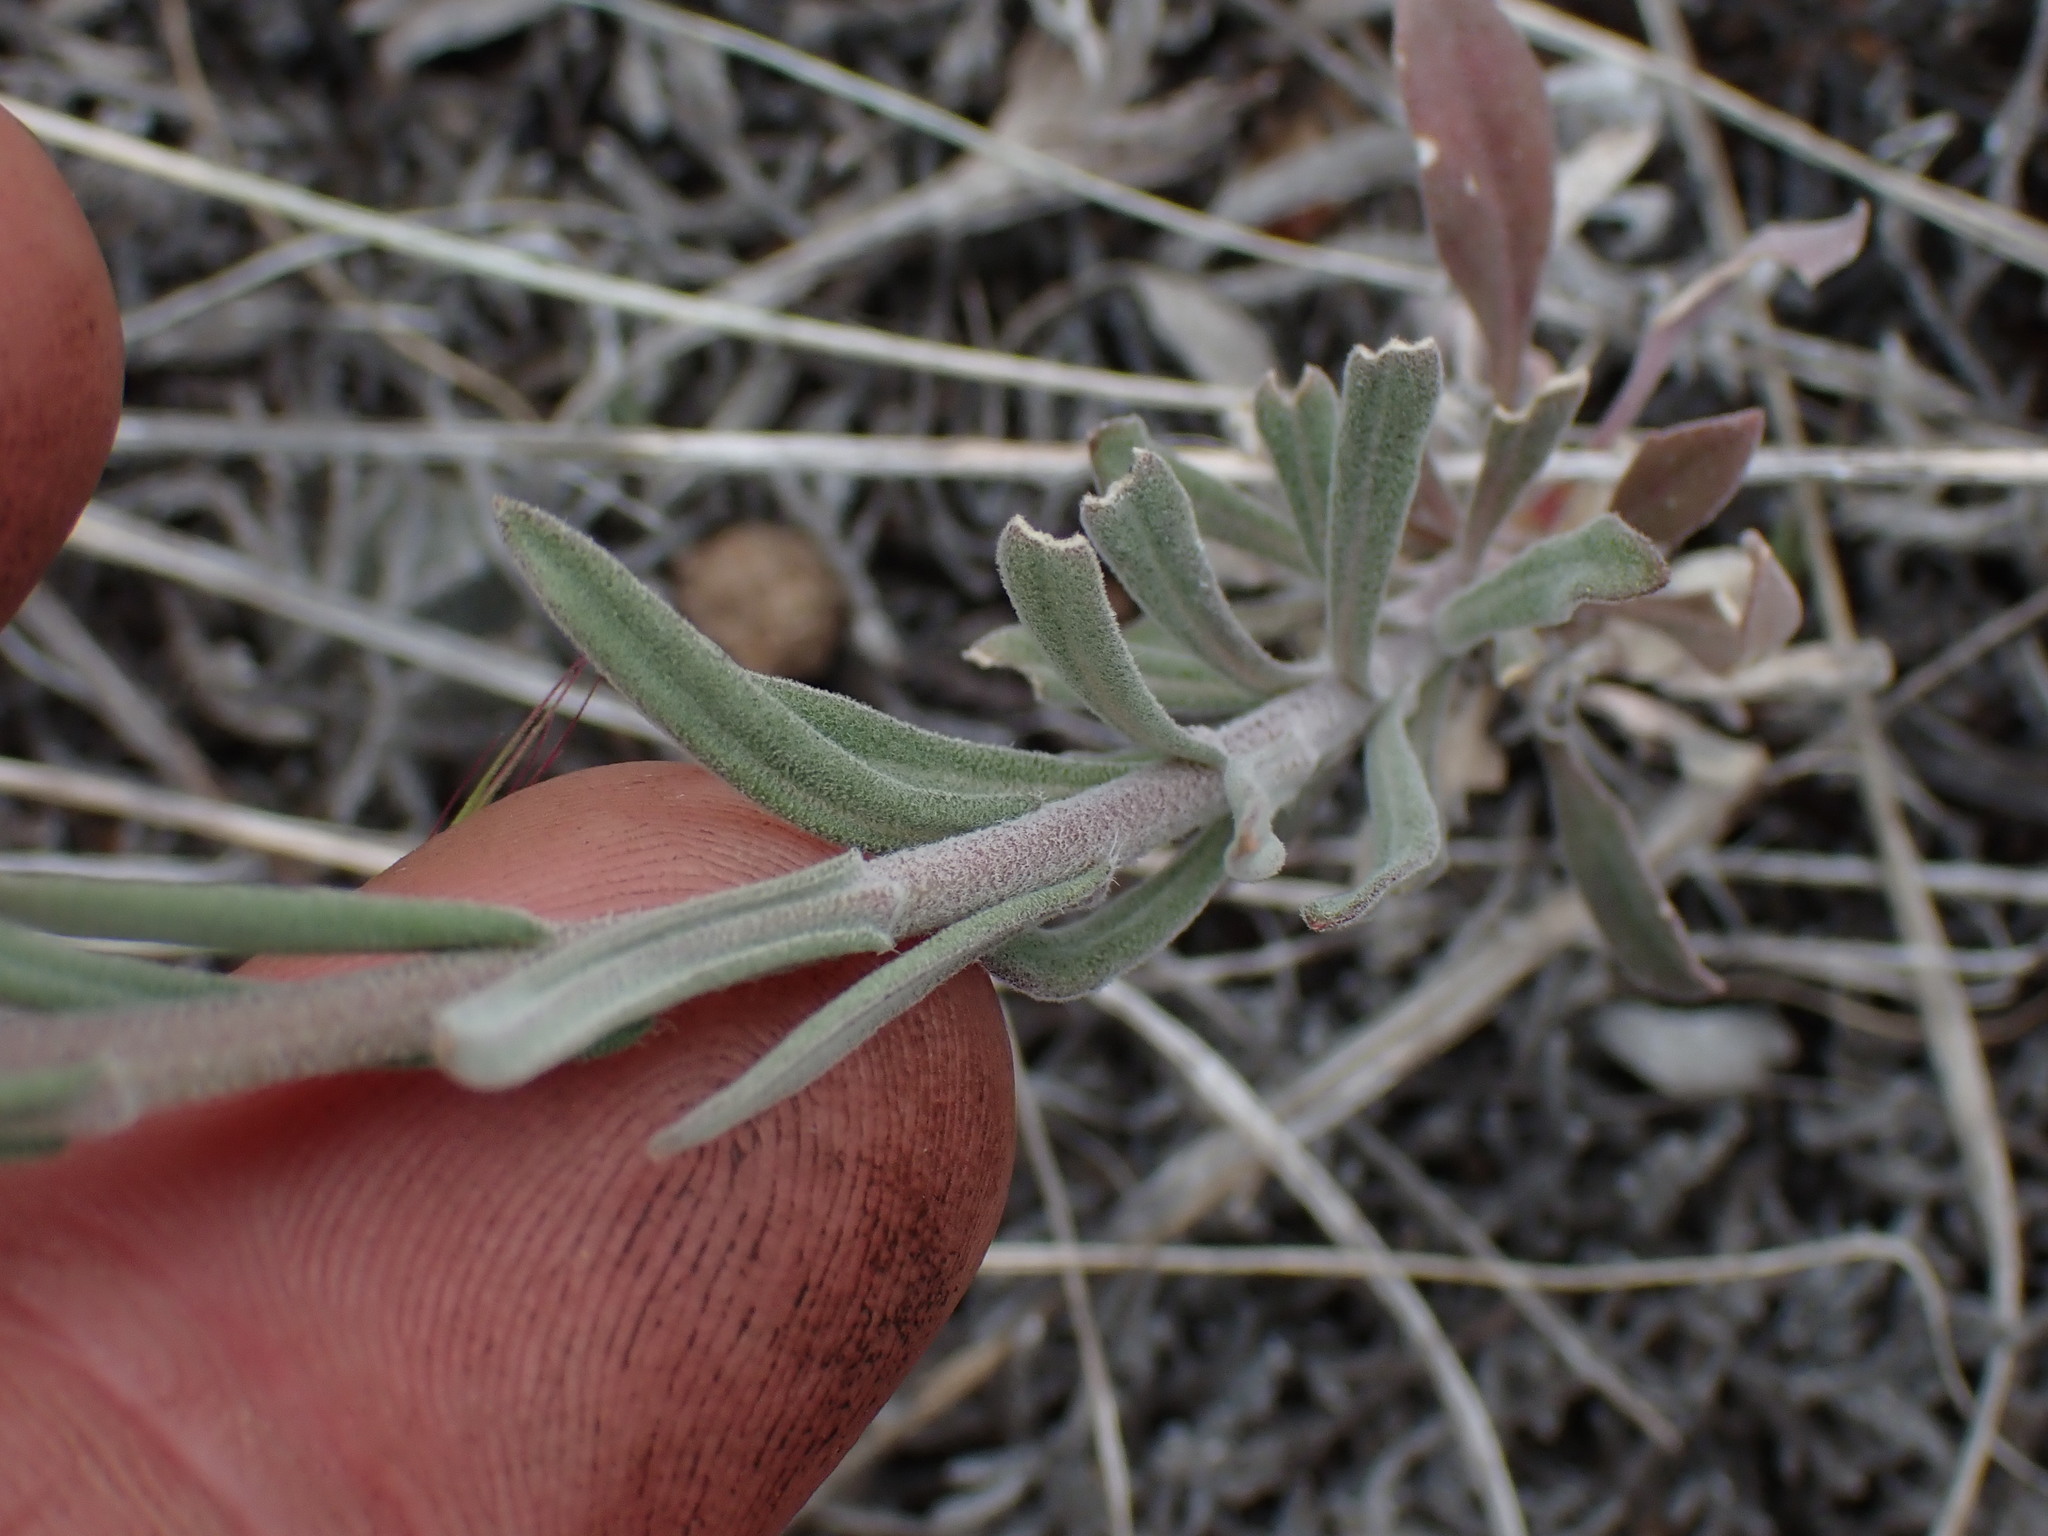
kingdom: Plantae
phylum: Tracheophyta
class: Magnoliopsida
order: Brassicales
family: Brassicaceae
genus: Boechera
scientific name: Boechera retrofracta
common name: Dangling suncress
